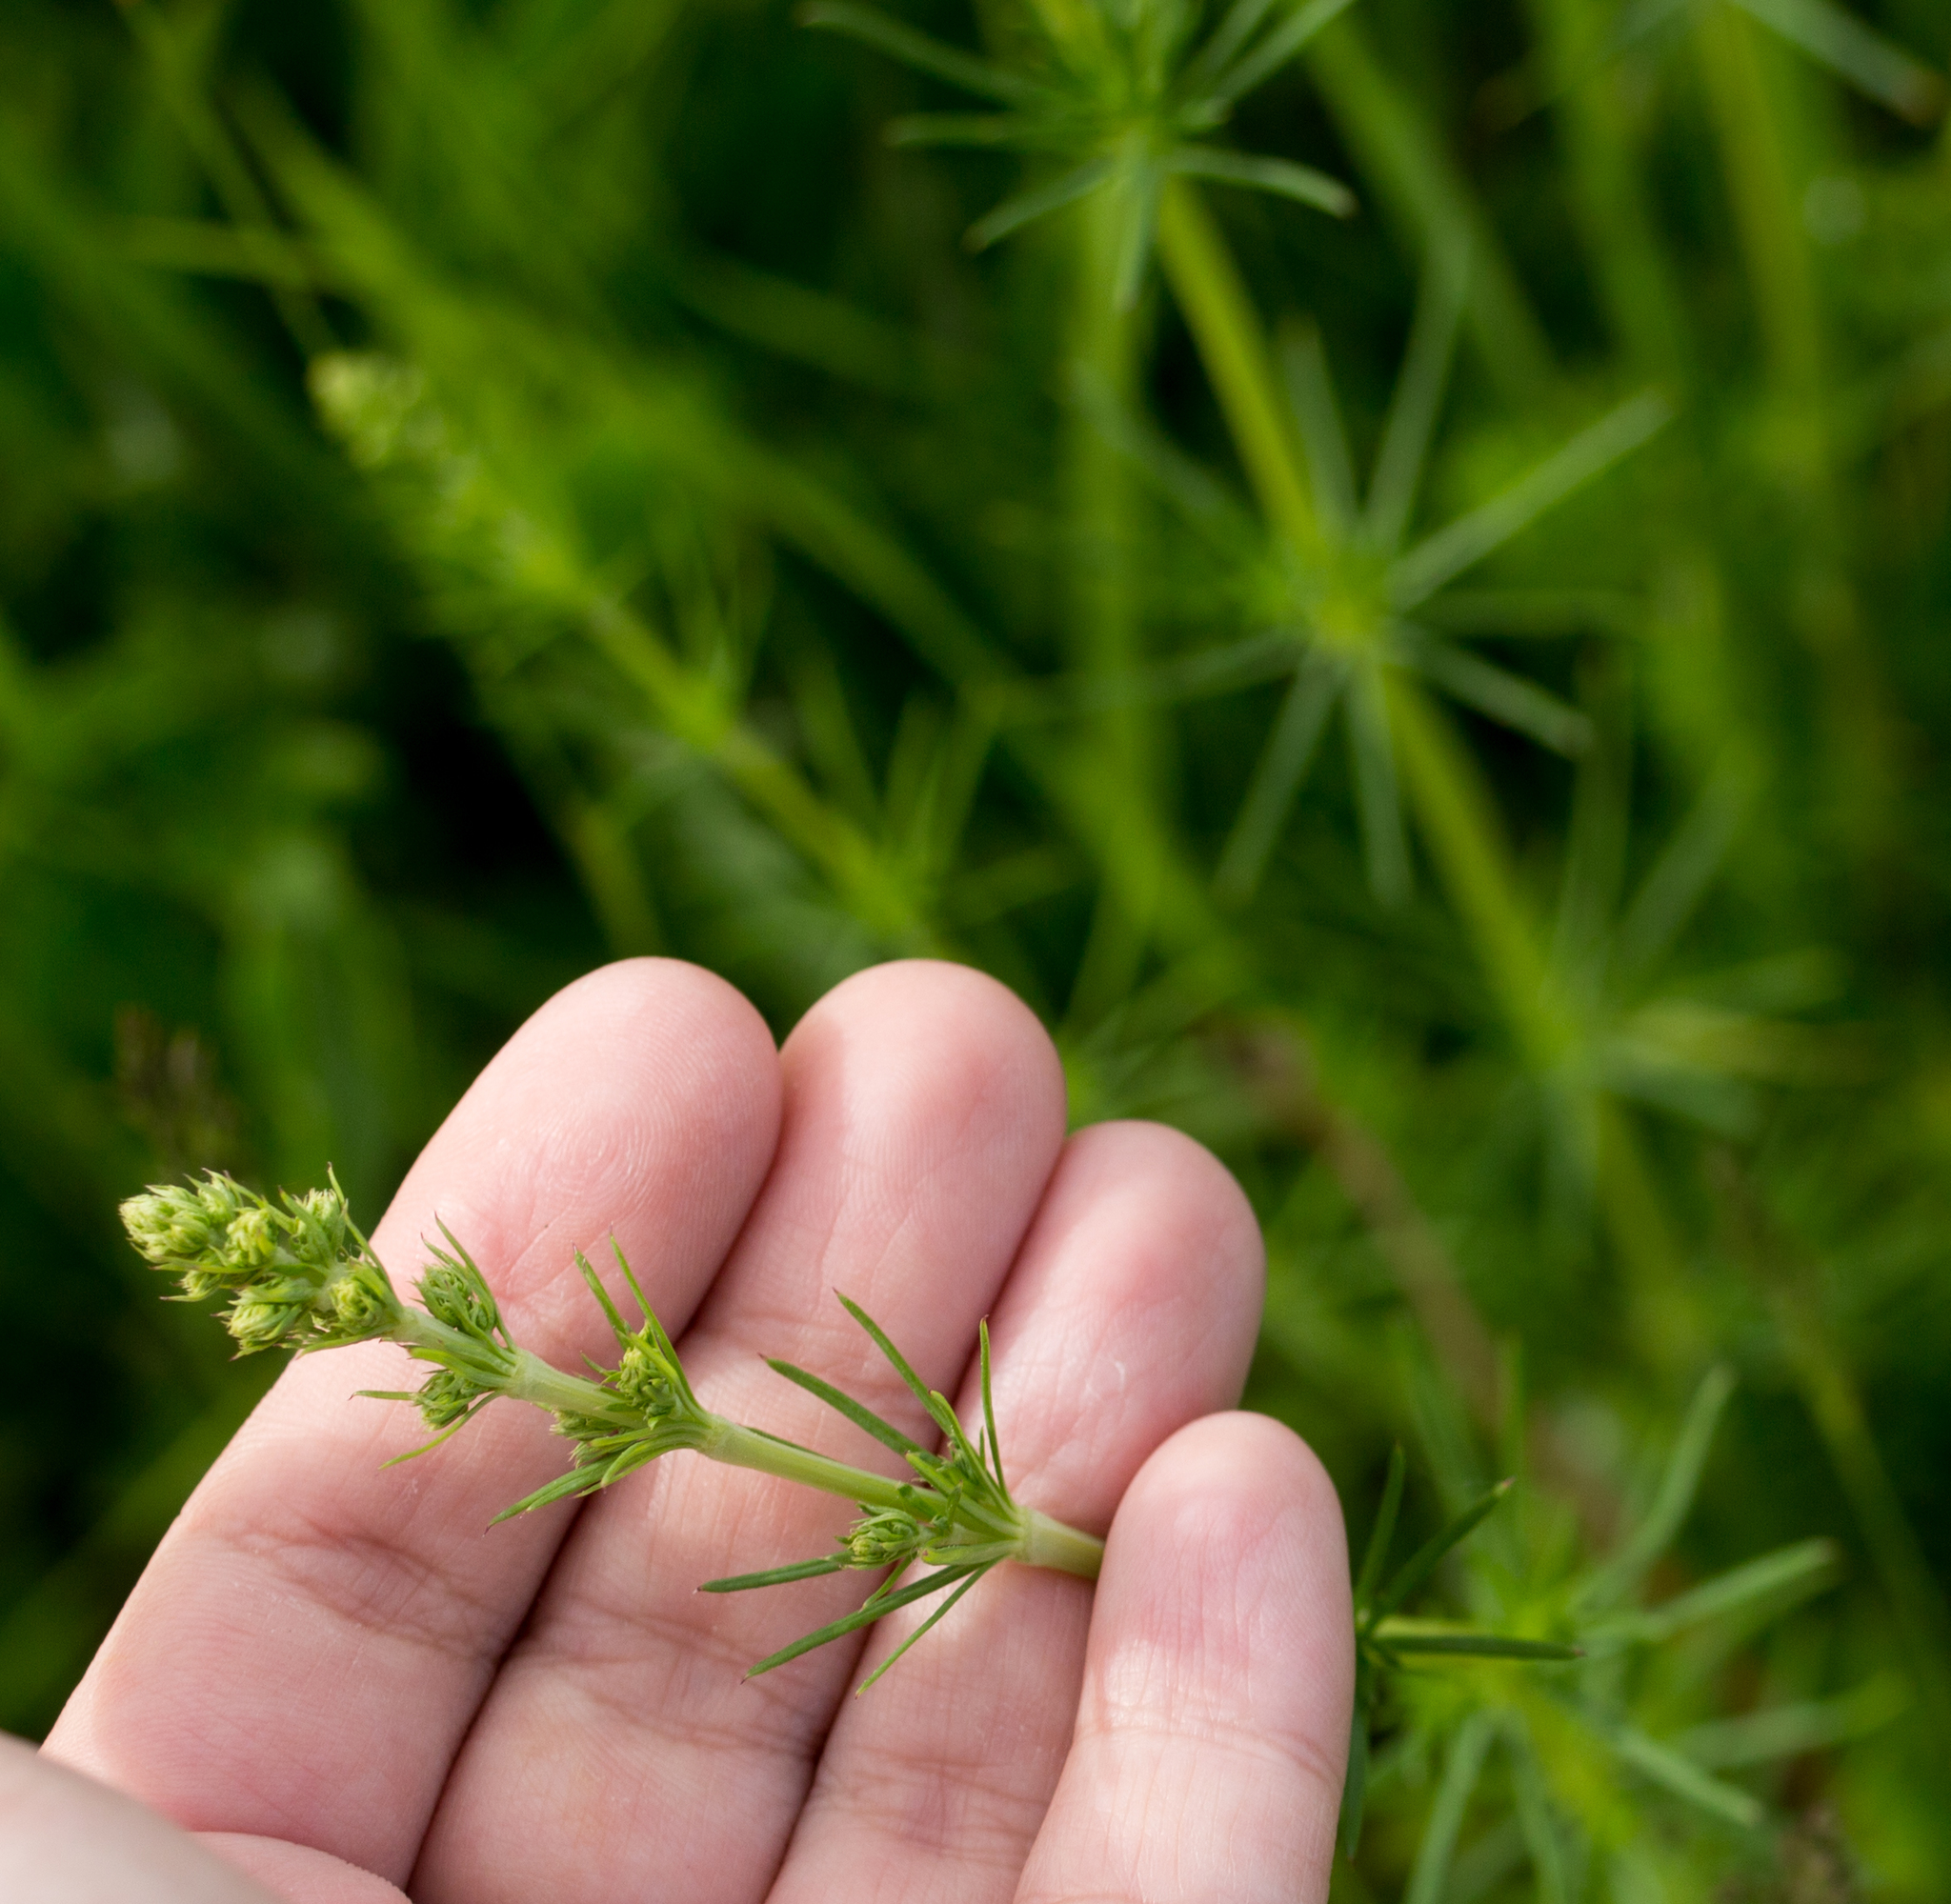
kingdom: Plantae
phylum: Tracheophyta
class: Magnoliopsida
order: Gentianales
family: Rubiaceae
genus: Galium
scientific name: Galium verum
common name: Lady's bedstraw
